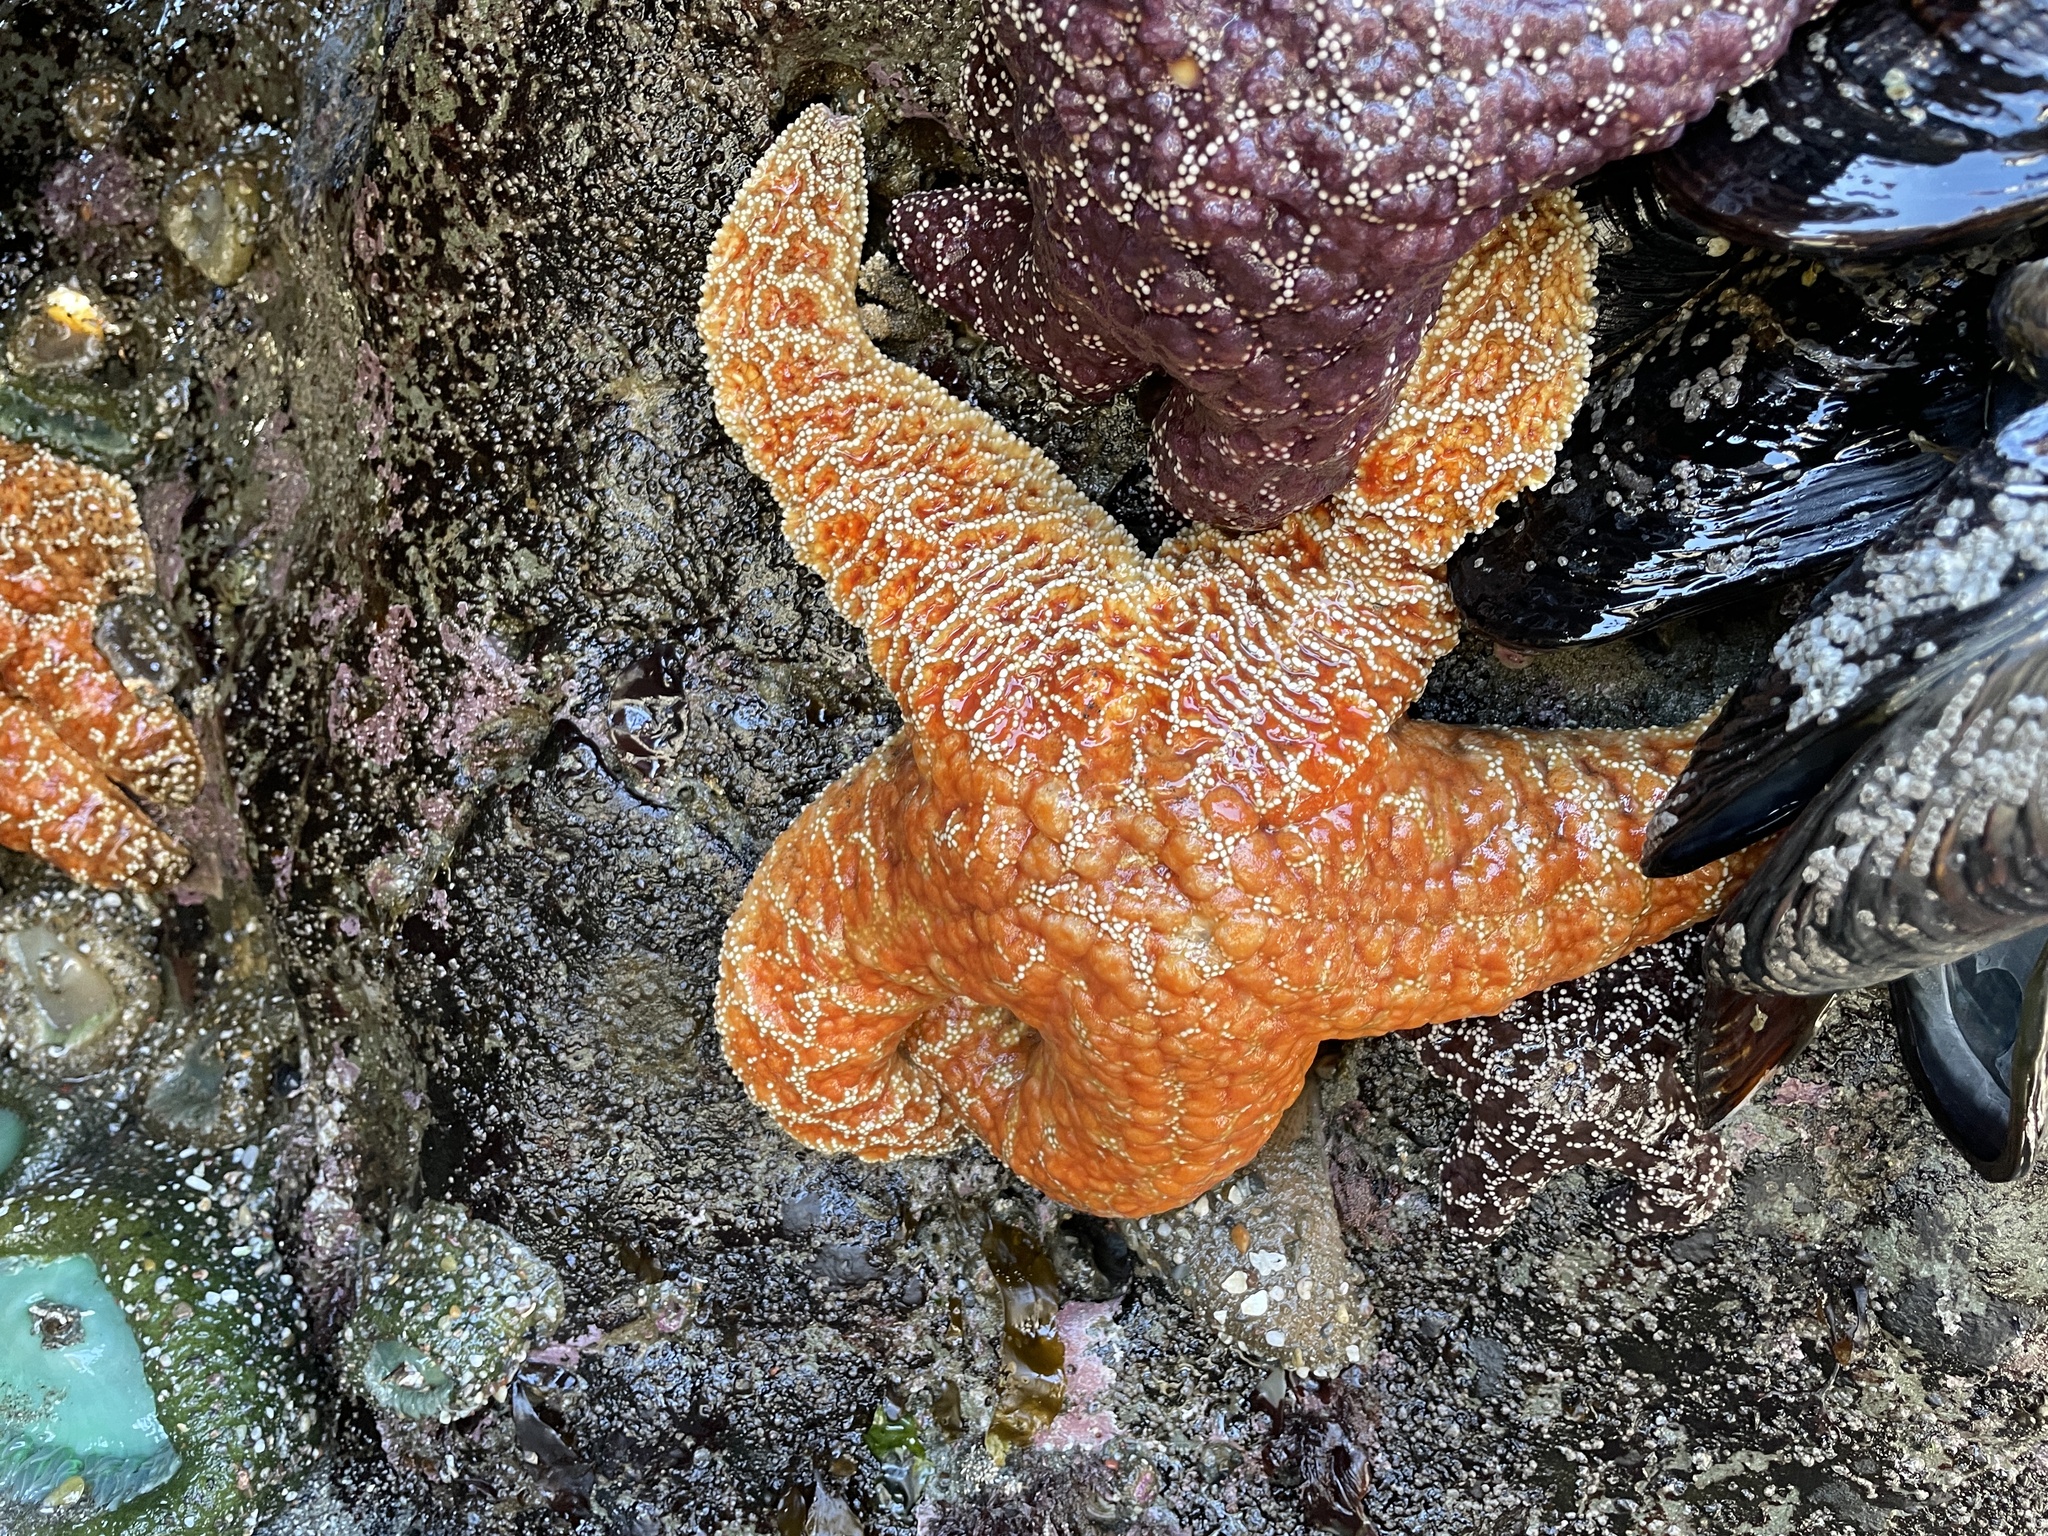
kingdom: Animalia
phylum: Echinodermata
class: Asteroidea
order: Forcipulatida
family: Asteriidae
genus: Pisaster
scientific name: Pisaster ochraceus
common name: Ochre stars
